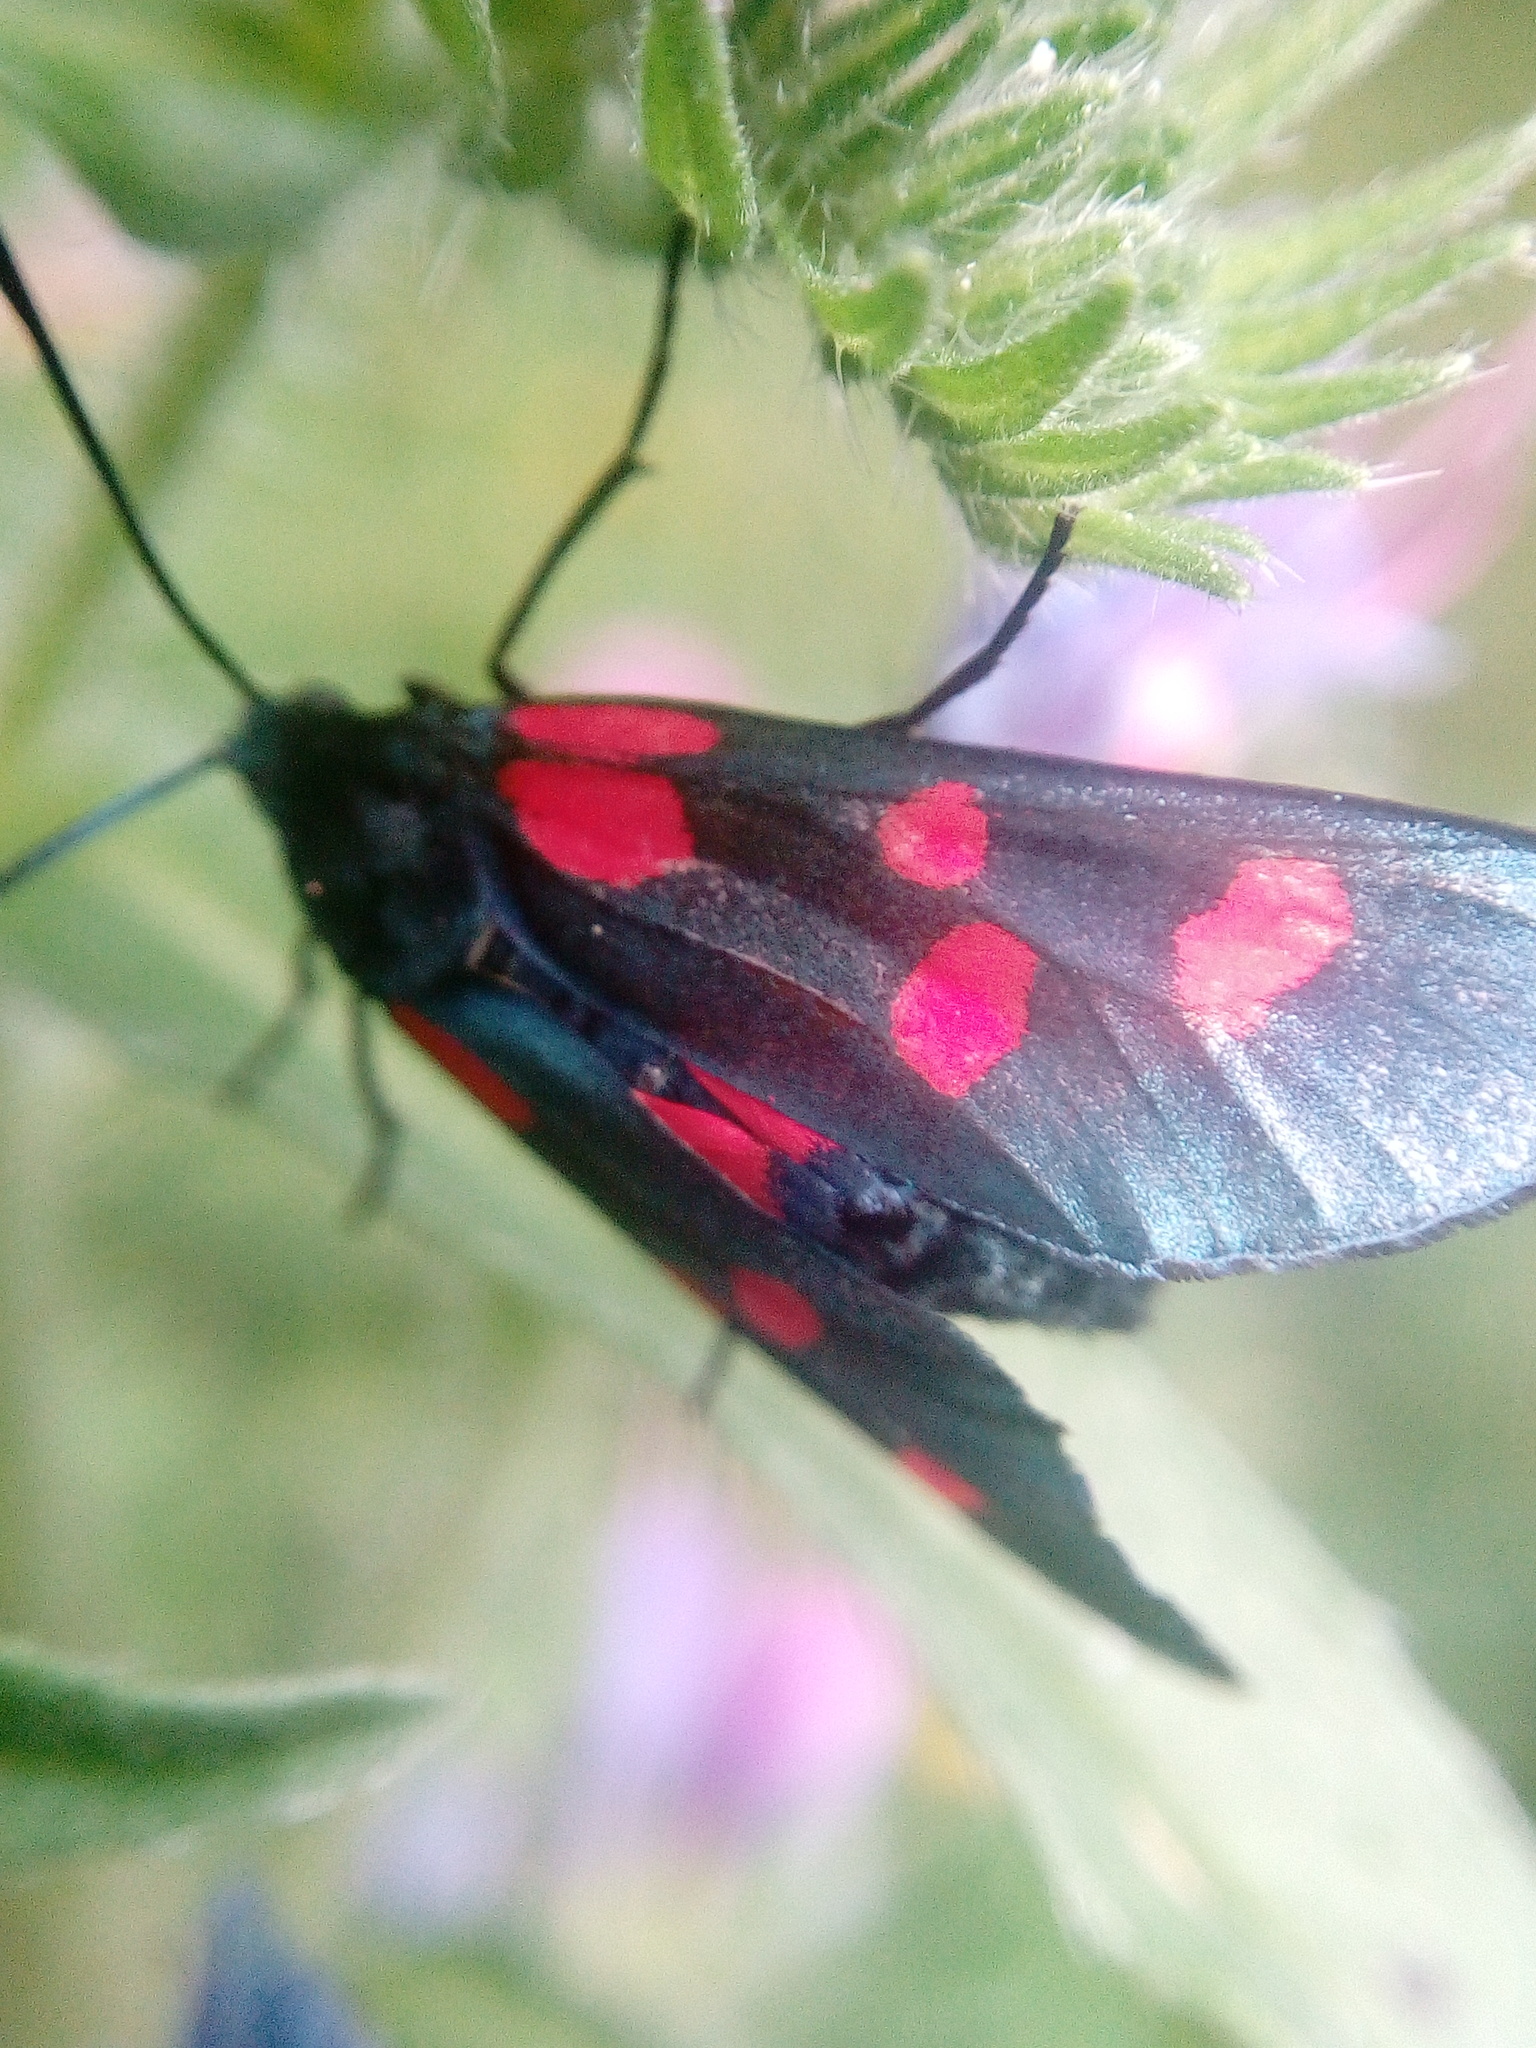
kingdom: Animalia
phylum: Arthropoda
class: Insecta
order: Lepidoptera
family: Zygaenidae
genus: Zygaena
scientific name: Zygaena lonicerae
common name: Narrow-bordered five-spot burnet
